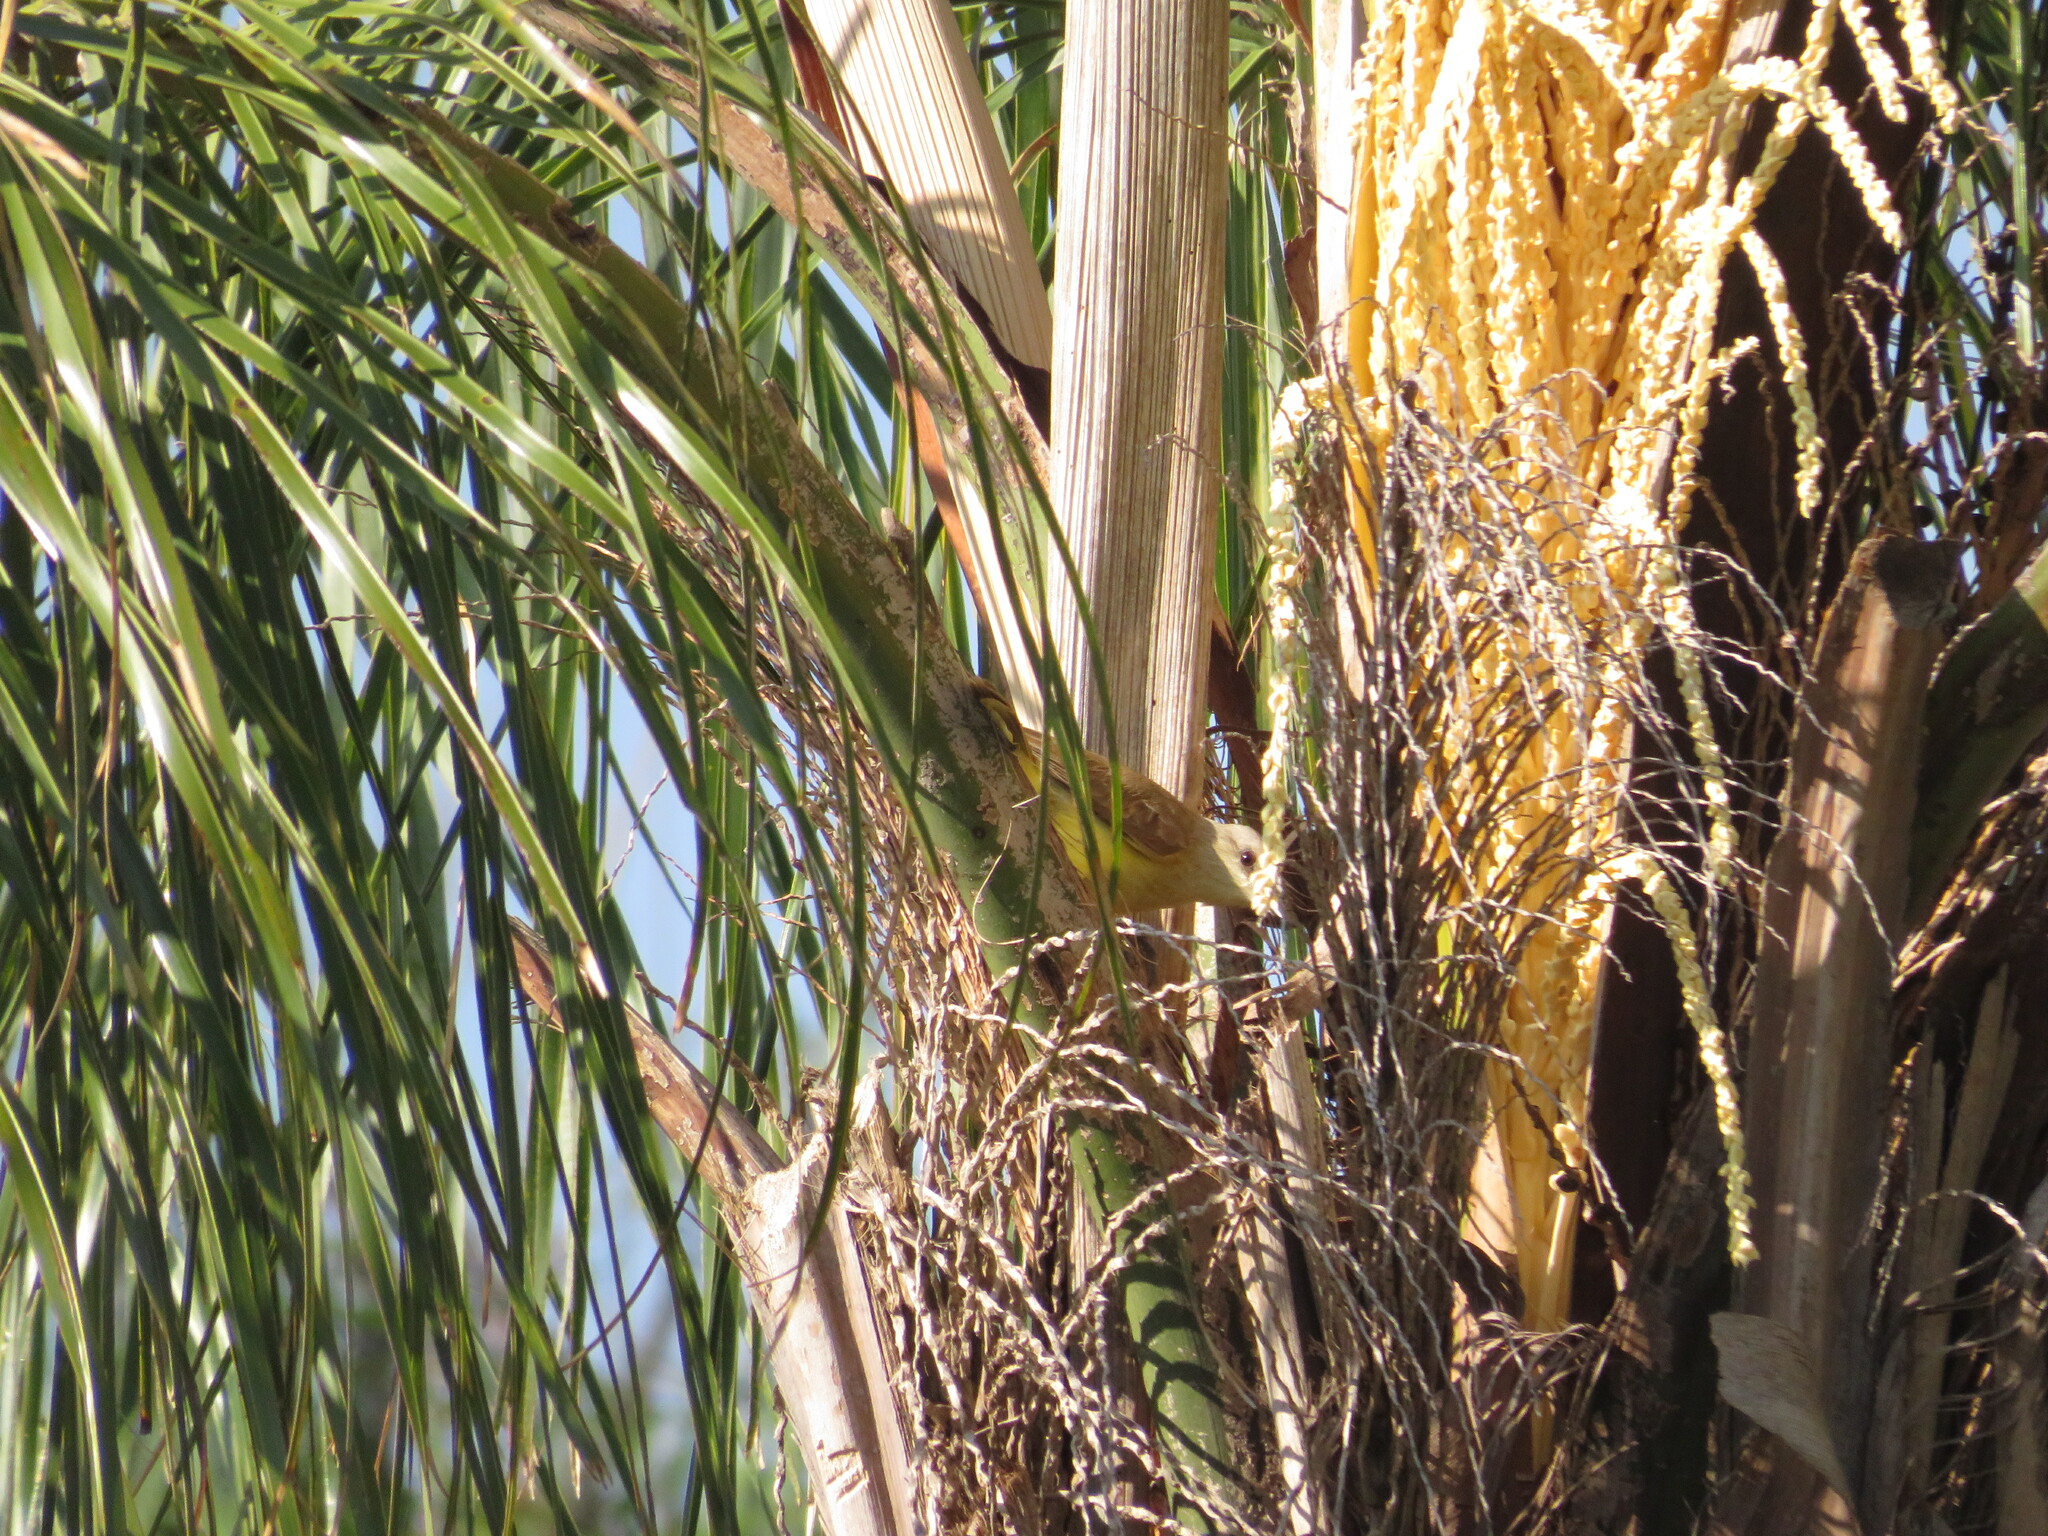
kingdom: Animalia
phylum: Chordata
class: Aves
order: Passeriformes
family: Tyrannidae
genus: Machetornis
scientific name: Machetornis rixosa
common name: Cattle tyrant
